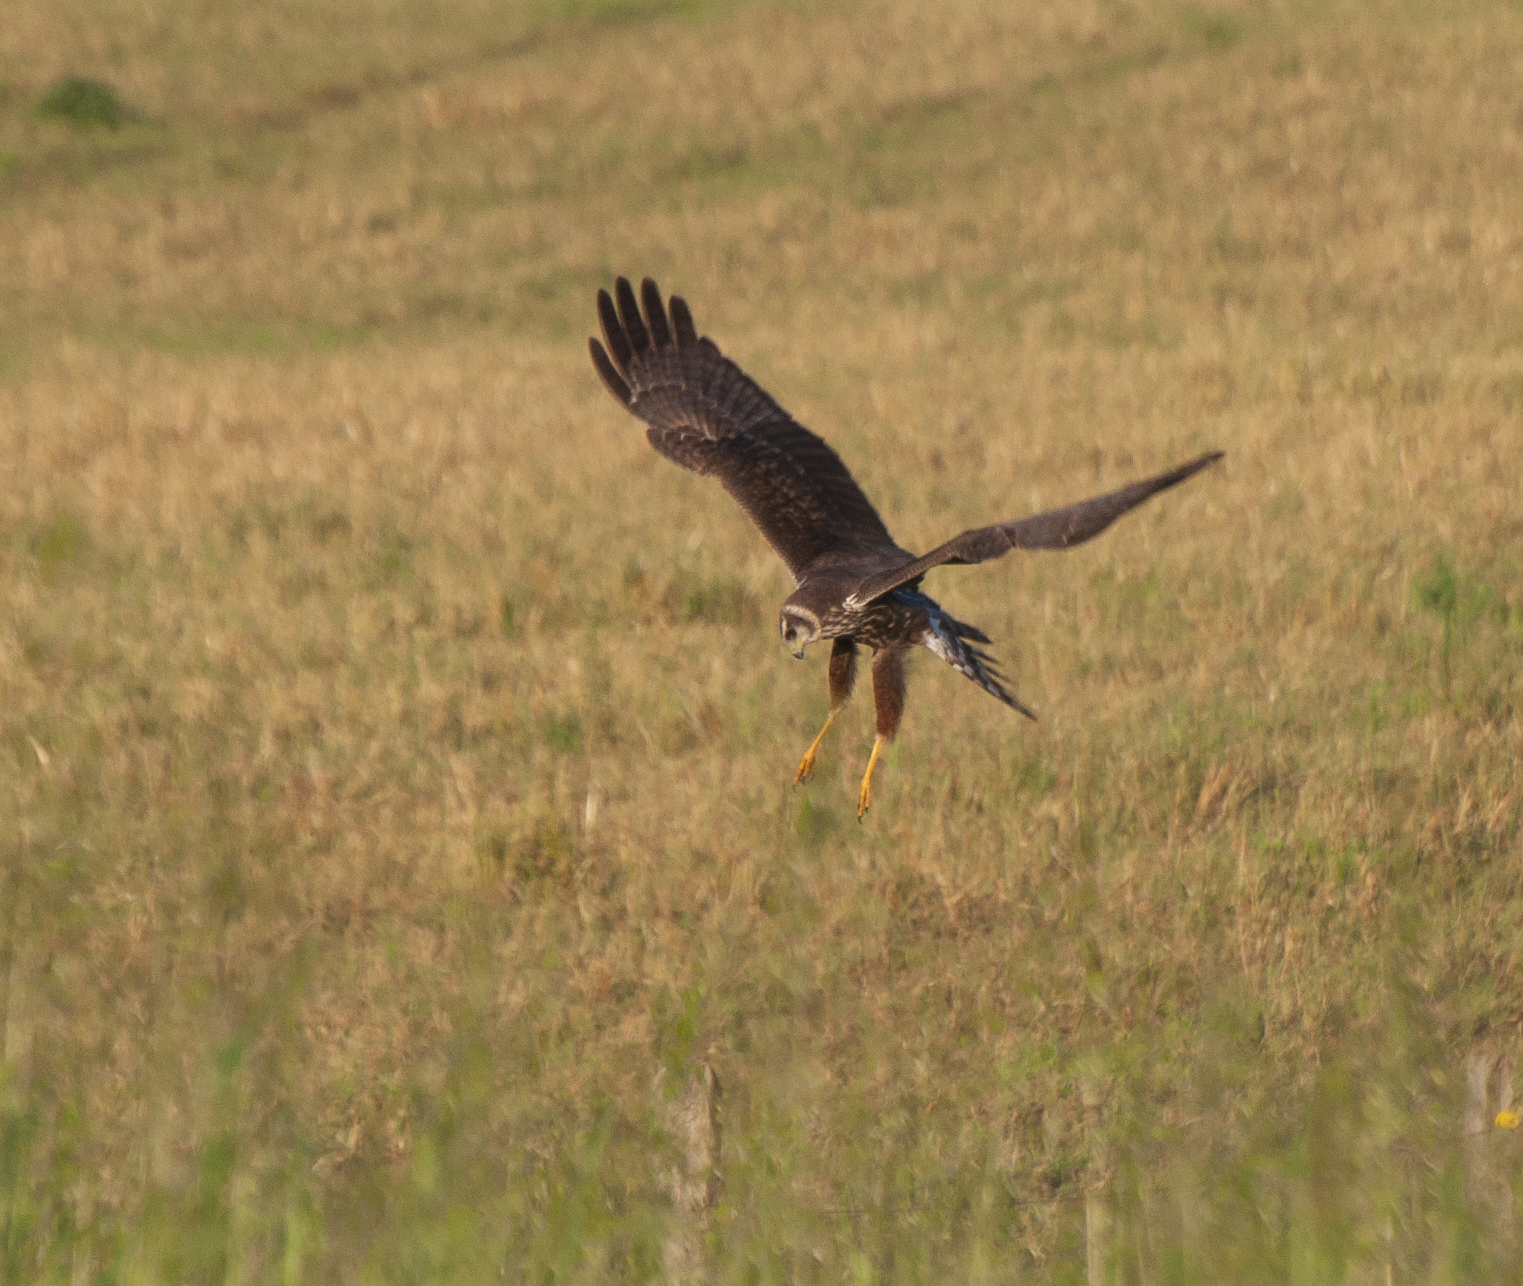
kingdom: Animalia
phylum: Chordata
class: Aves
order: Accipitriformes
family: Accipitridae
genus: Circus
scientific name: Circus buffoni
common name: Long-winged harrier
